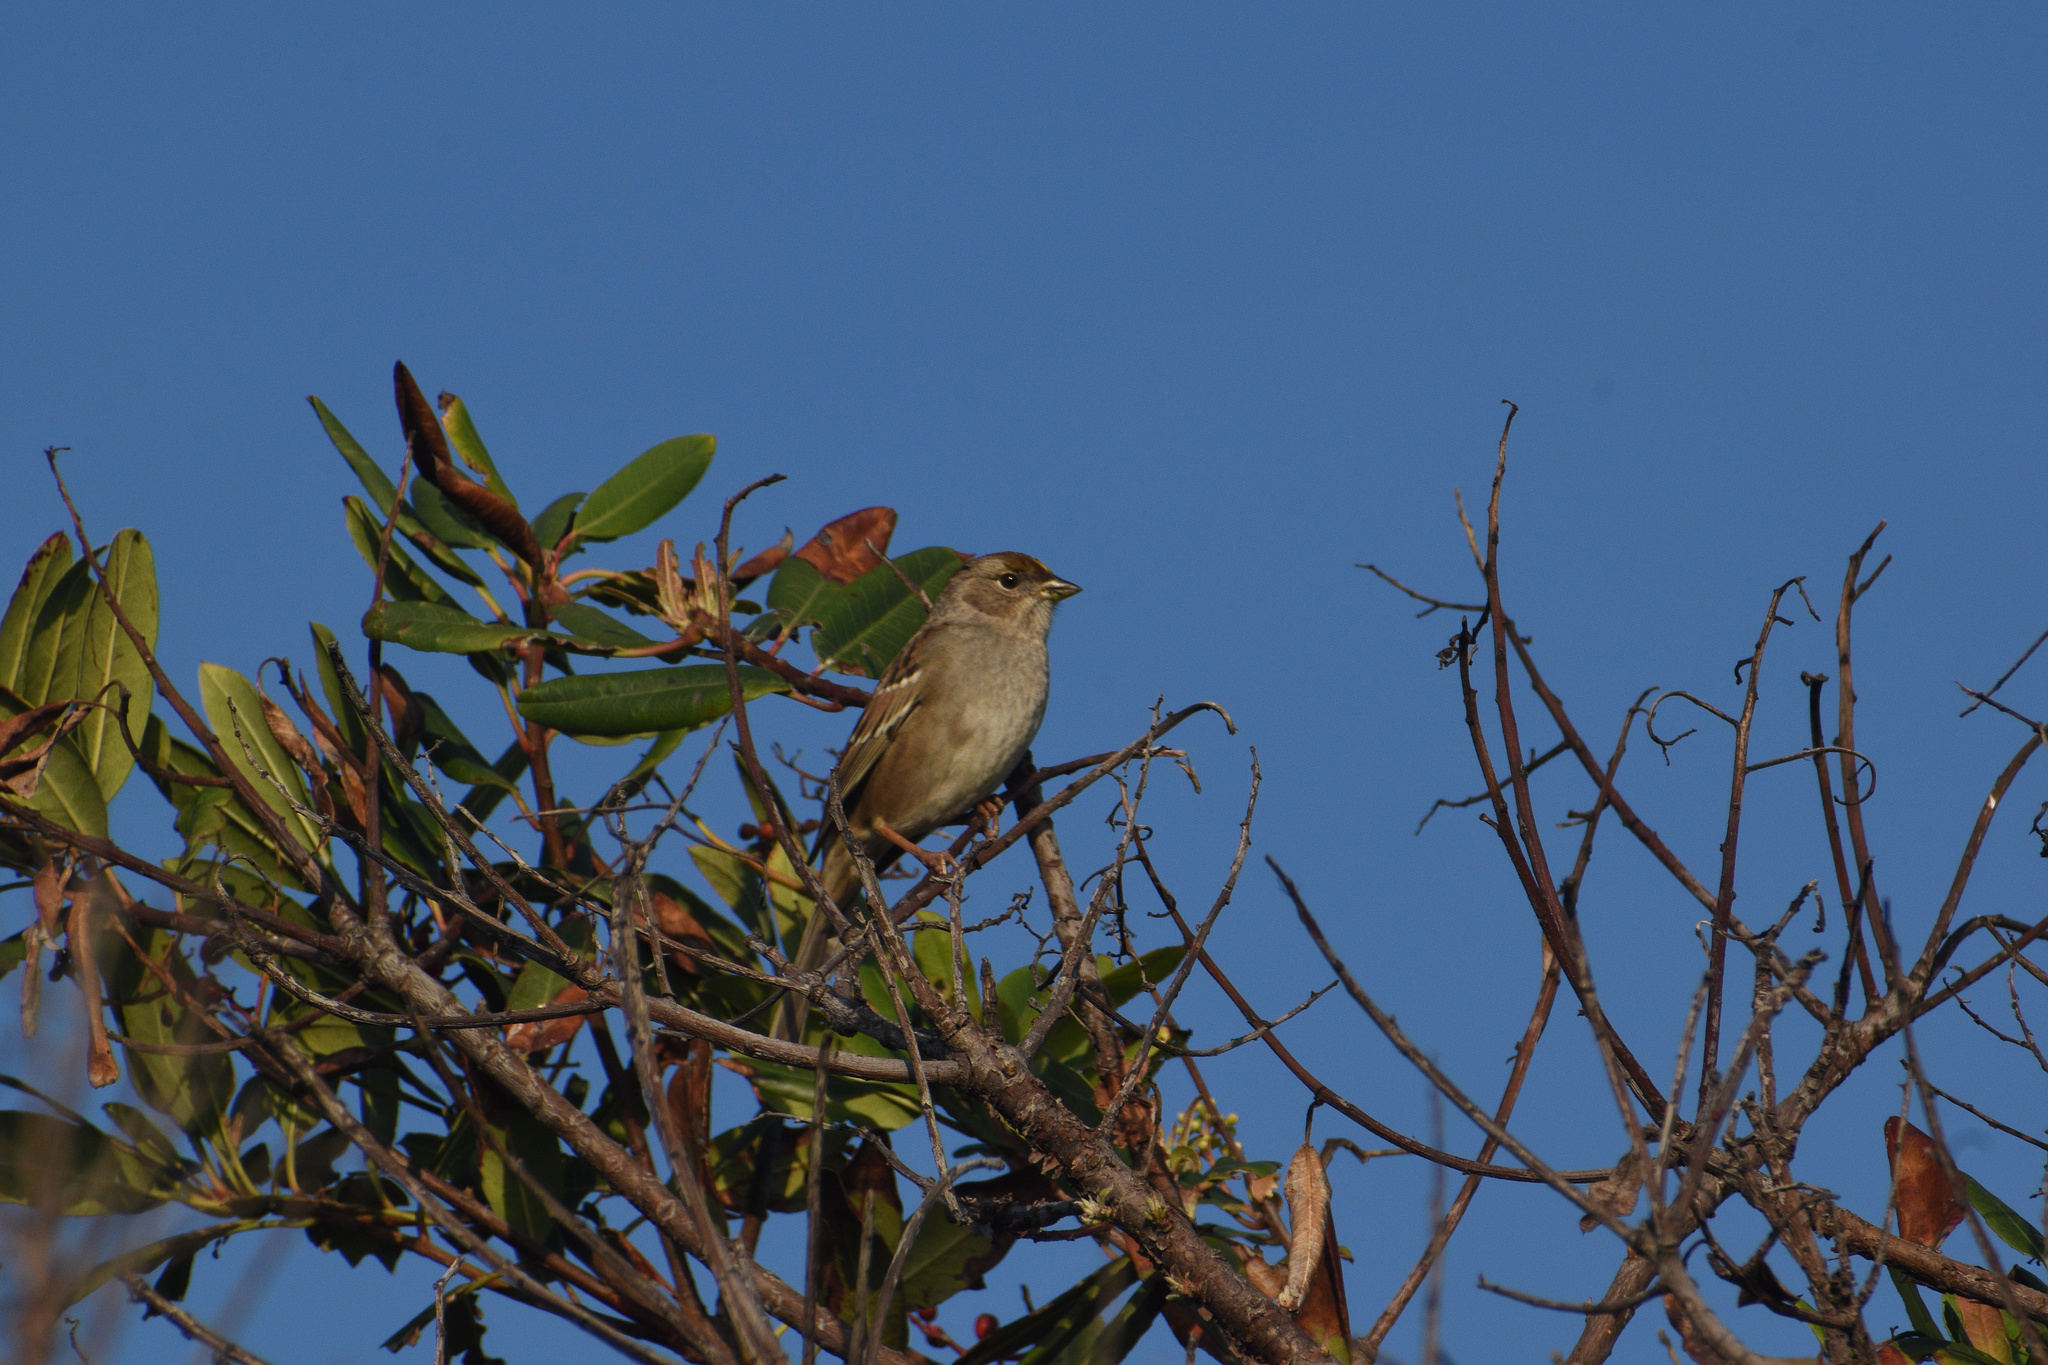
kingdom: Animalia
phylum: Chordata
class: Aves
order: Passeriformes
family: Passerellidae
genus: Zonotrichia
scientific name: Zonotrichia atricapilla
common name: Golden-crowned sparrow
